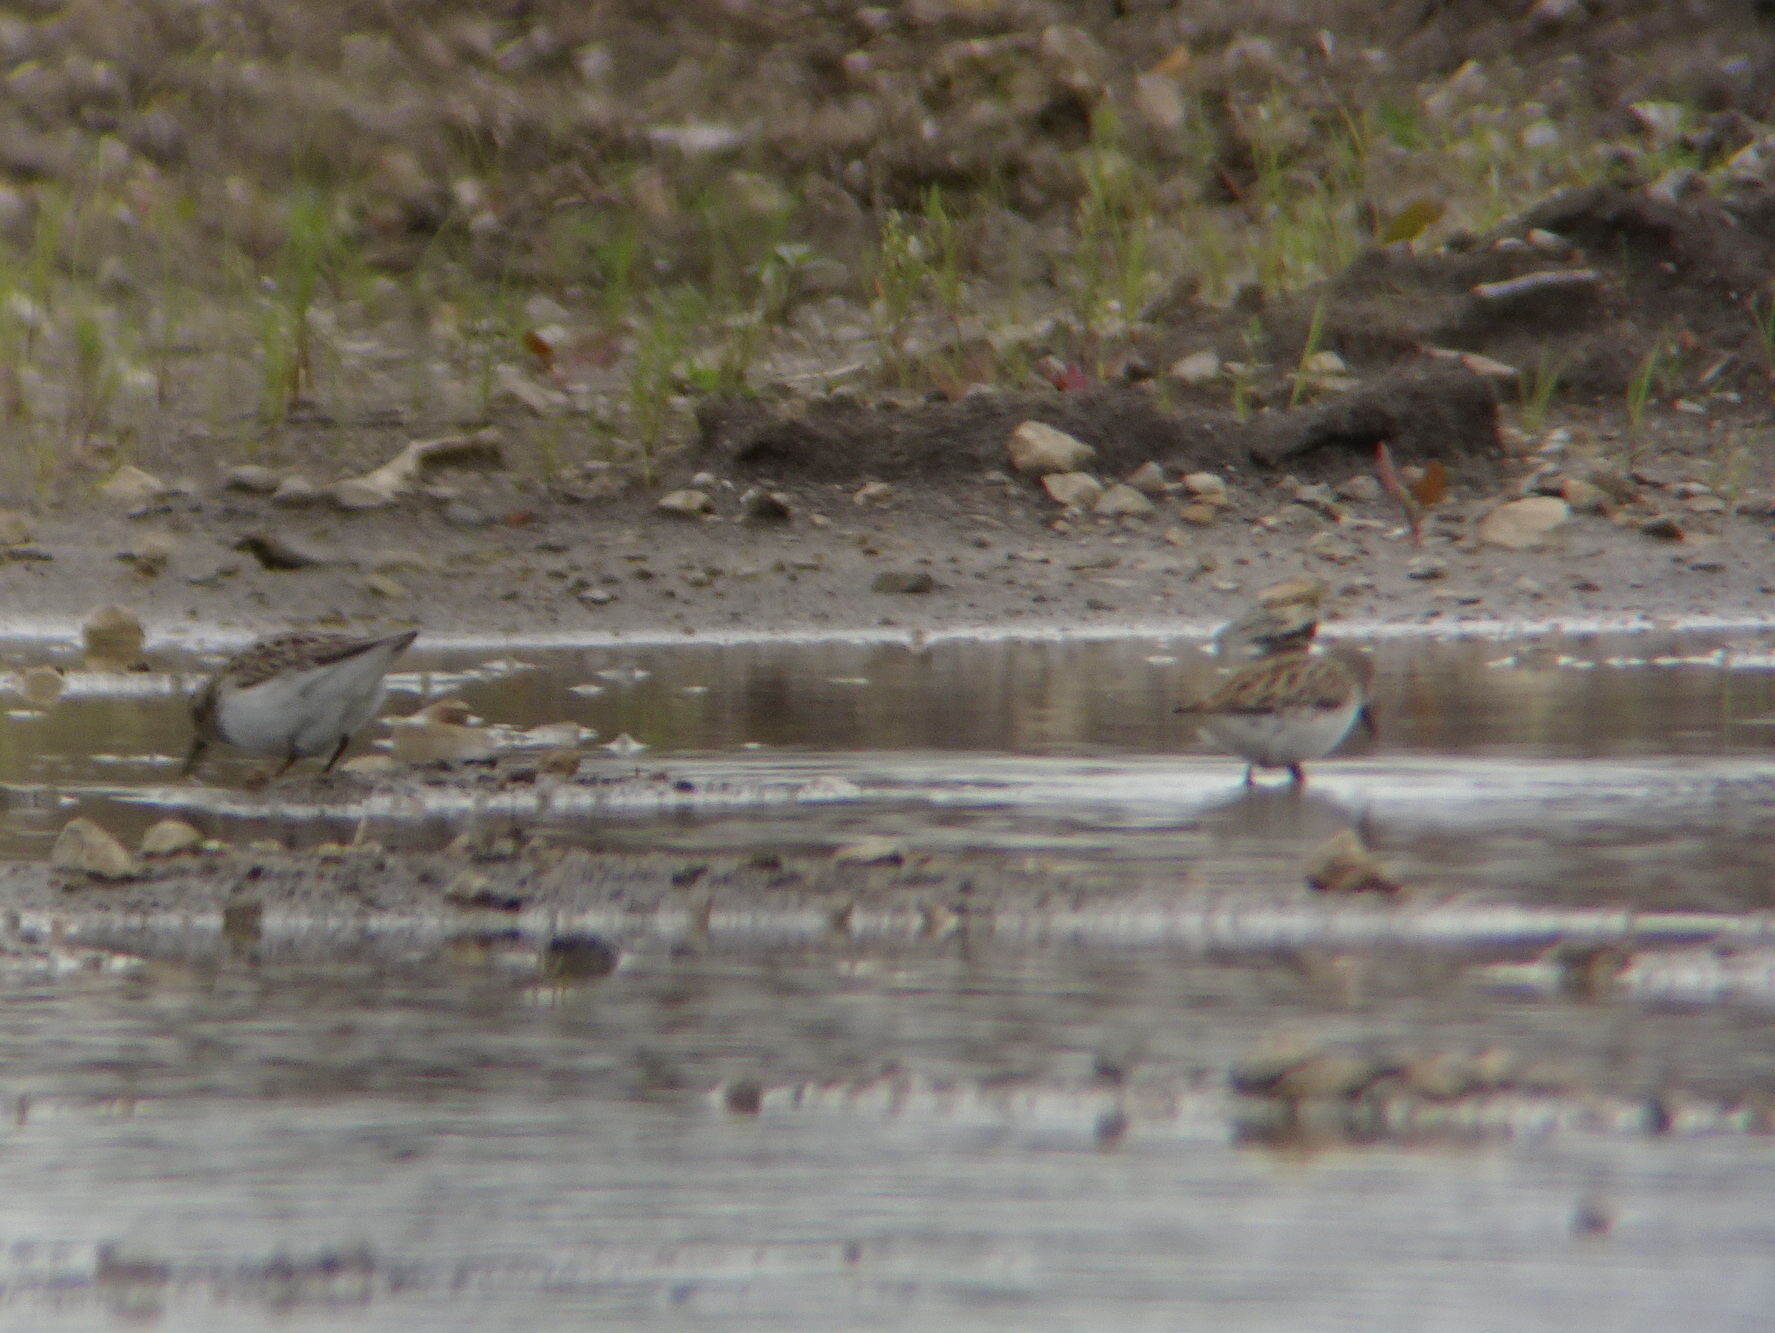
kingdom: Animalia
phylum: Chordata
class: Aves
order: Charadriiformes
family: Scolopacidae
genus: Calidris
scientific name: Calidris minutilla
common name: Least sandpiper
